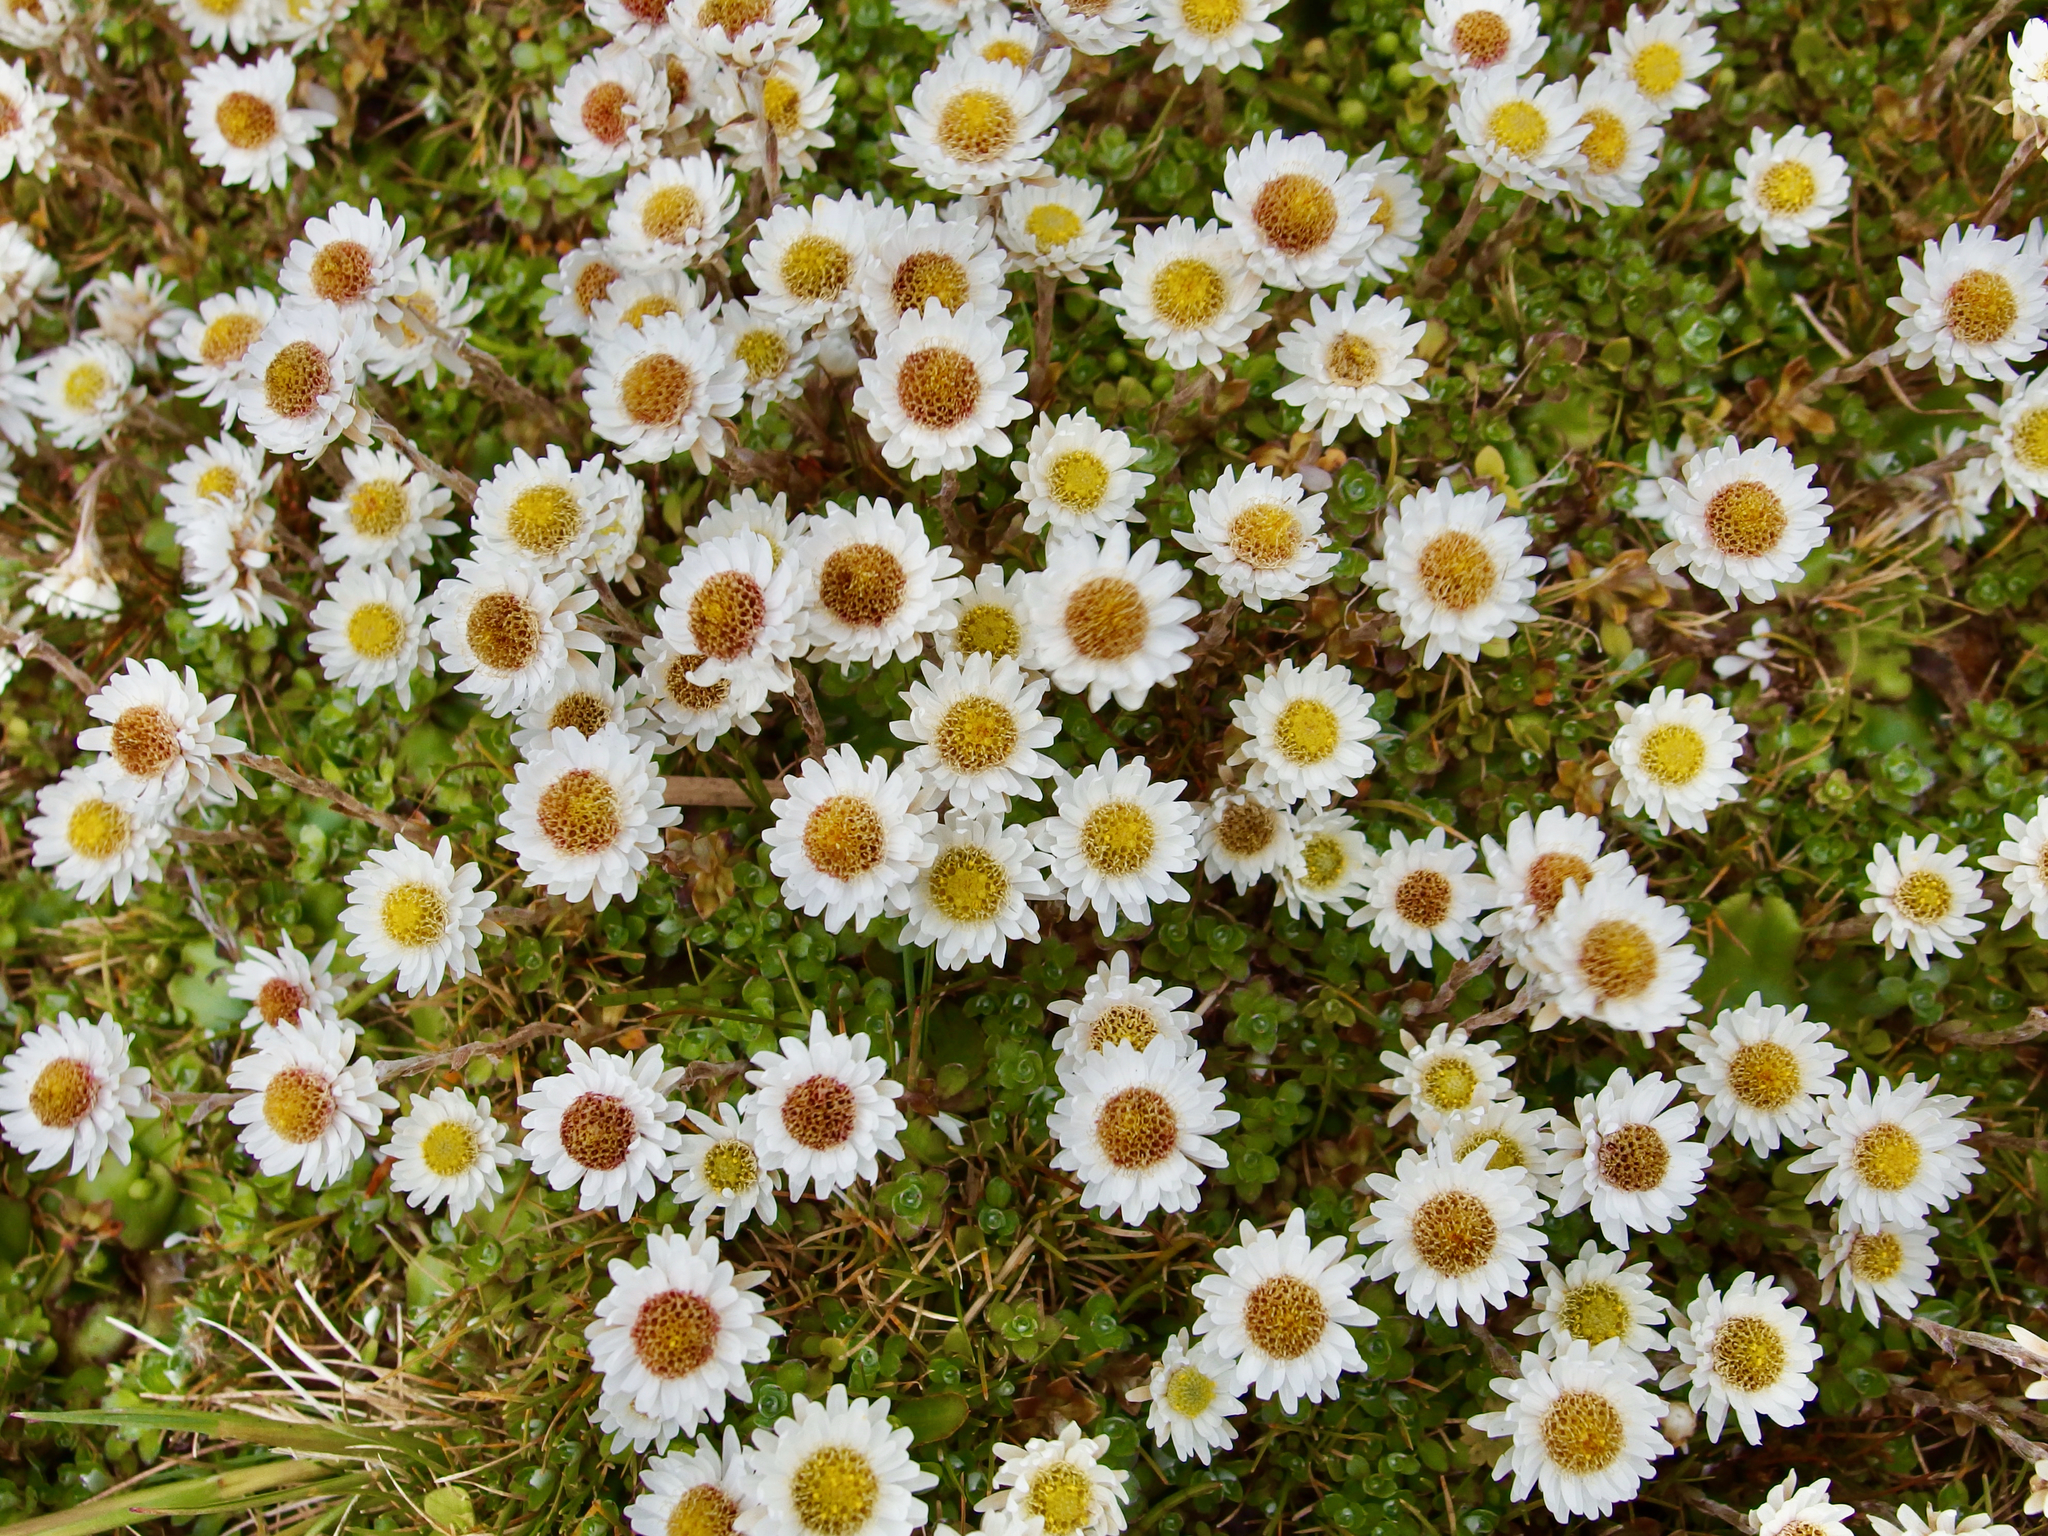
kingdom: Plantae
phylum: Tracheophyta
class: Magnoliopsida
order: Asterales
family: Asteraceae
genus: Anaphalioides
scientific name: Anaphalioides bellidioides
